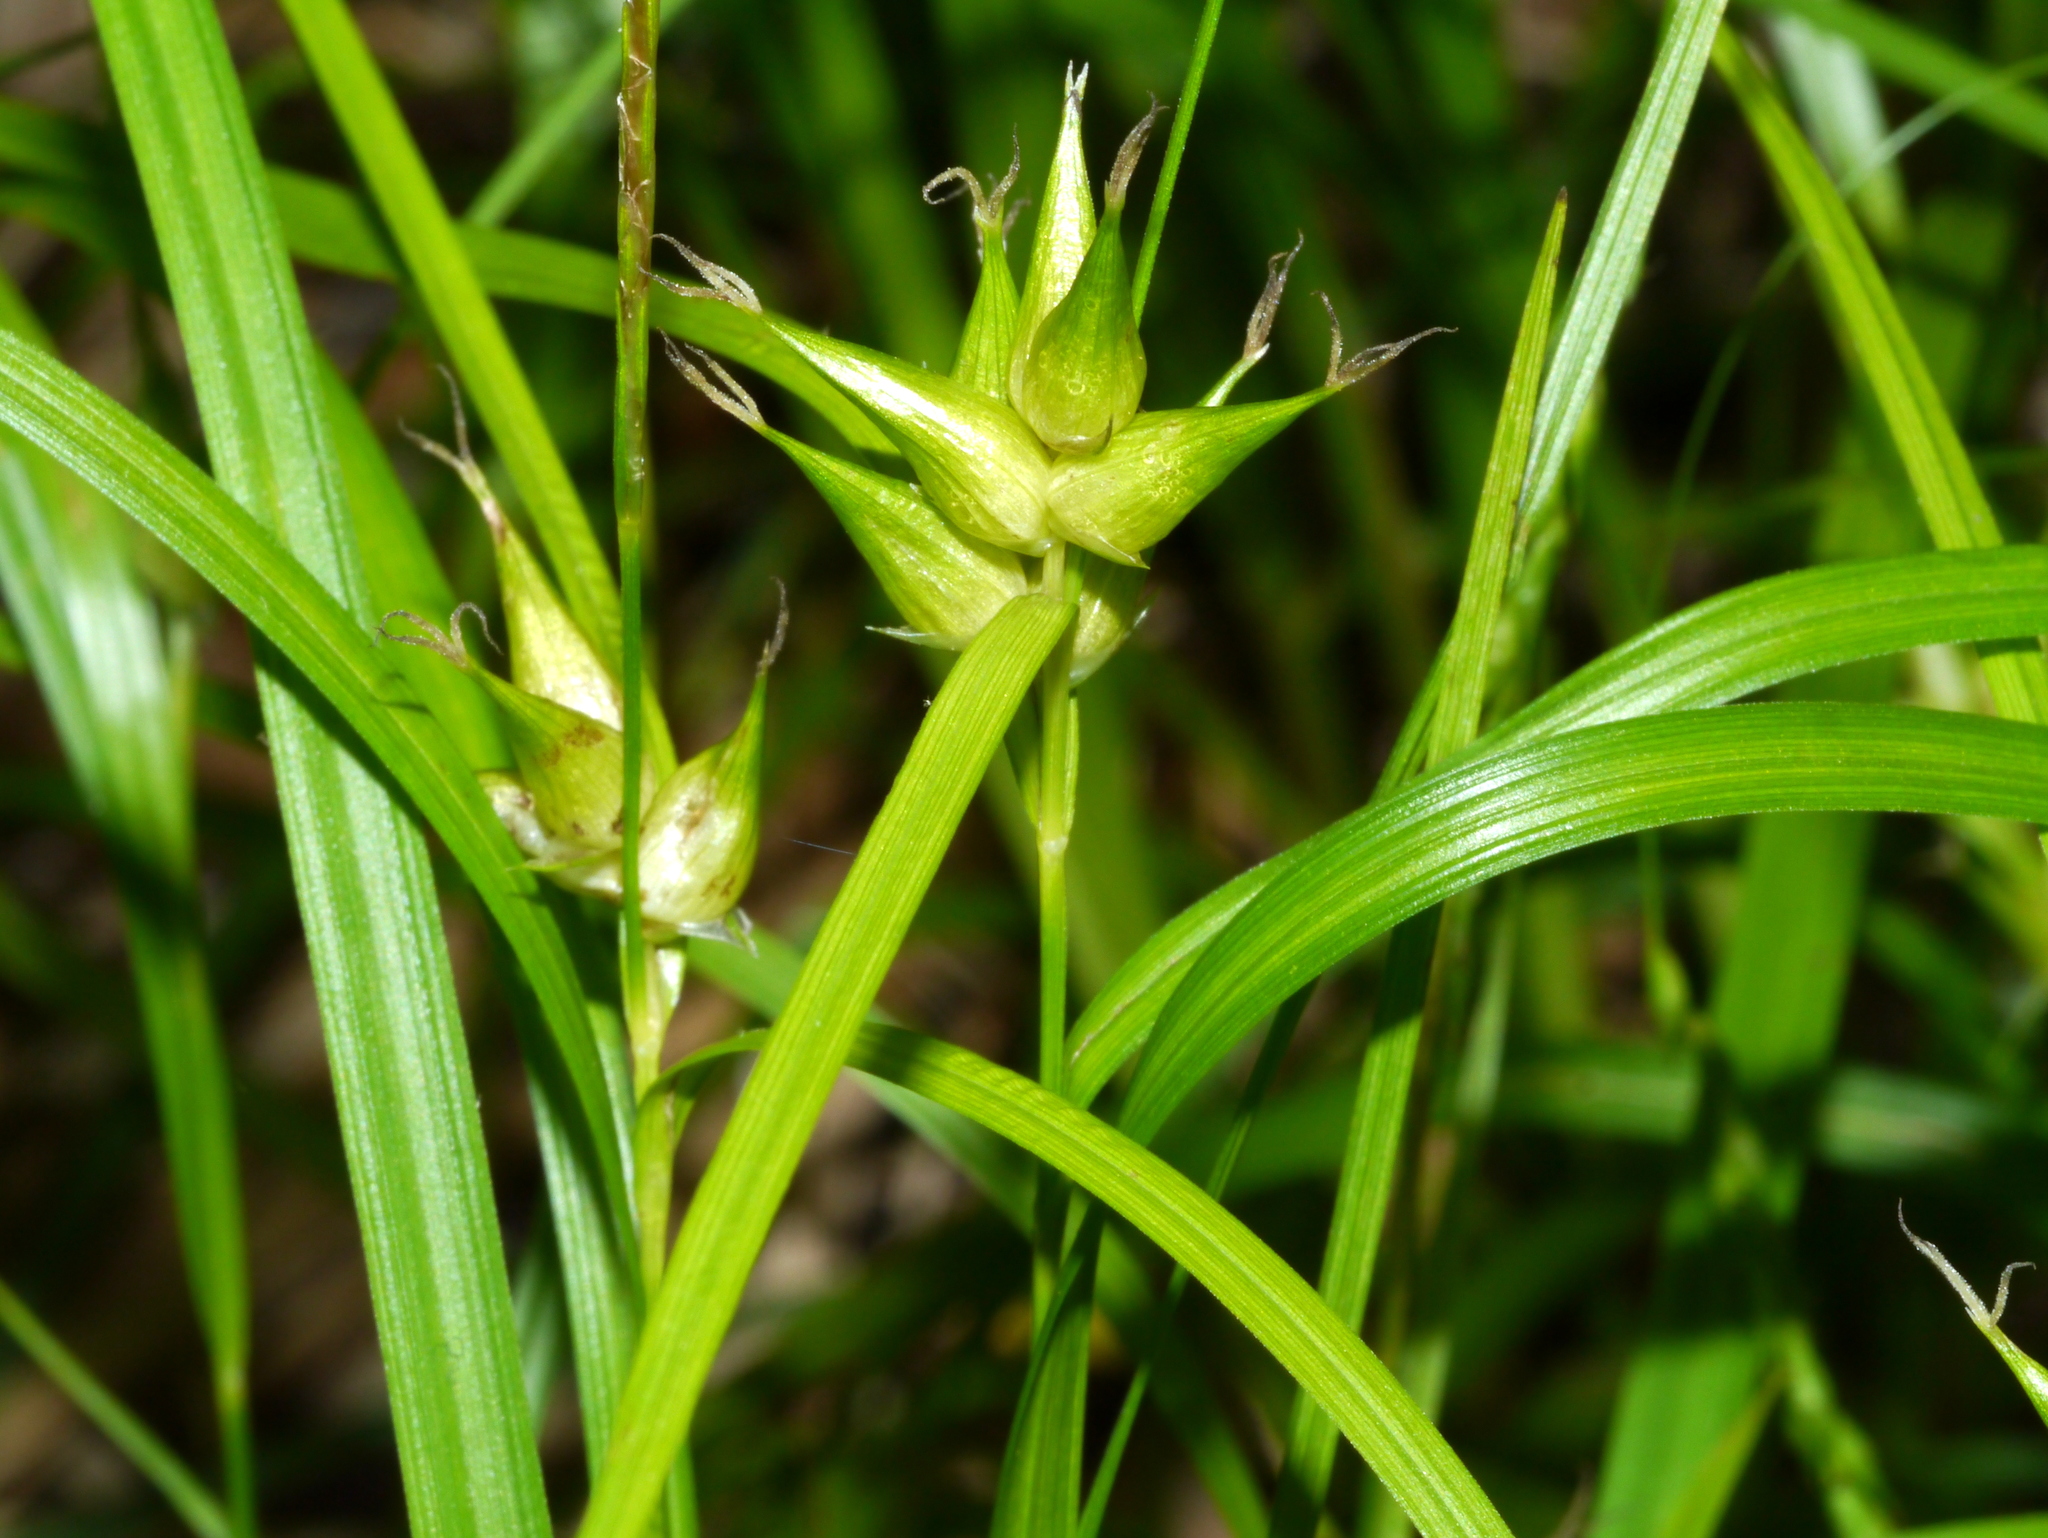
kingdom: Plantae
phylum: Tracheophyta
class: Liliopsida
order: Poales
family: Cyperaceae
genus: Carex
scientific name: Carex intumescens
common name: Greater bladder sedge
